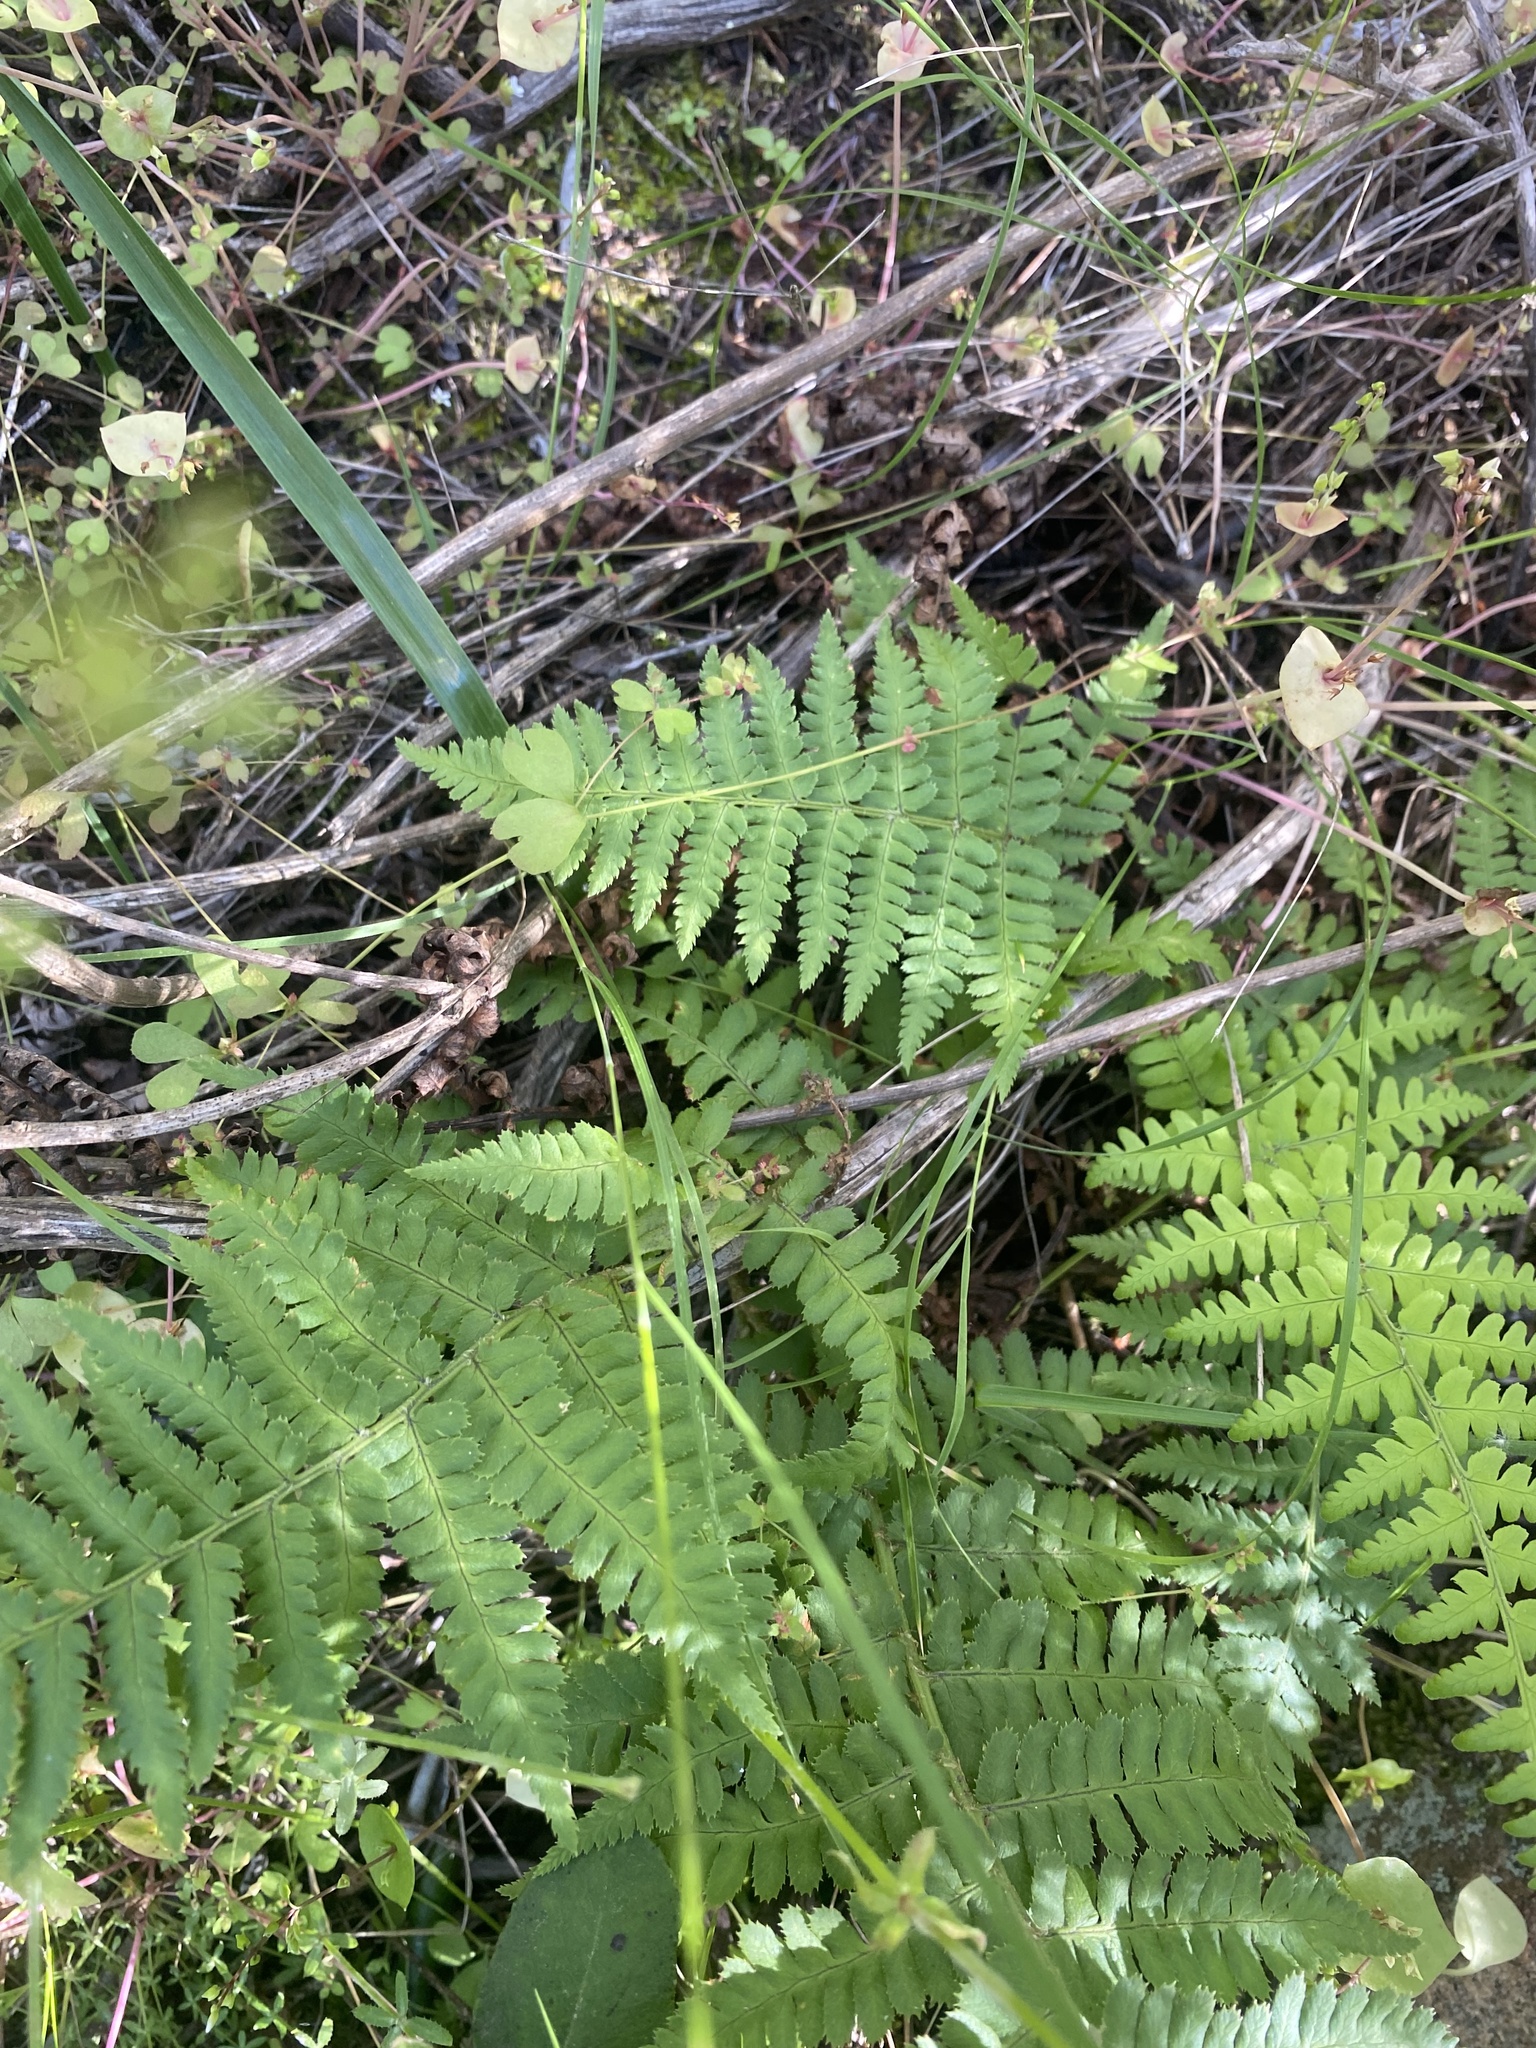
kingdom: Plantae
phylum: Tracheophyta
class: Polypodiopsida
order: Polypodiales
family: Dryopteridaceae
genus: Dryopteris
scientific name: Dryopteris arguta
